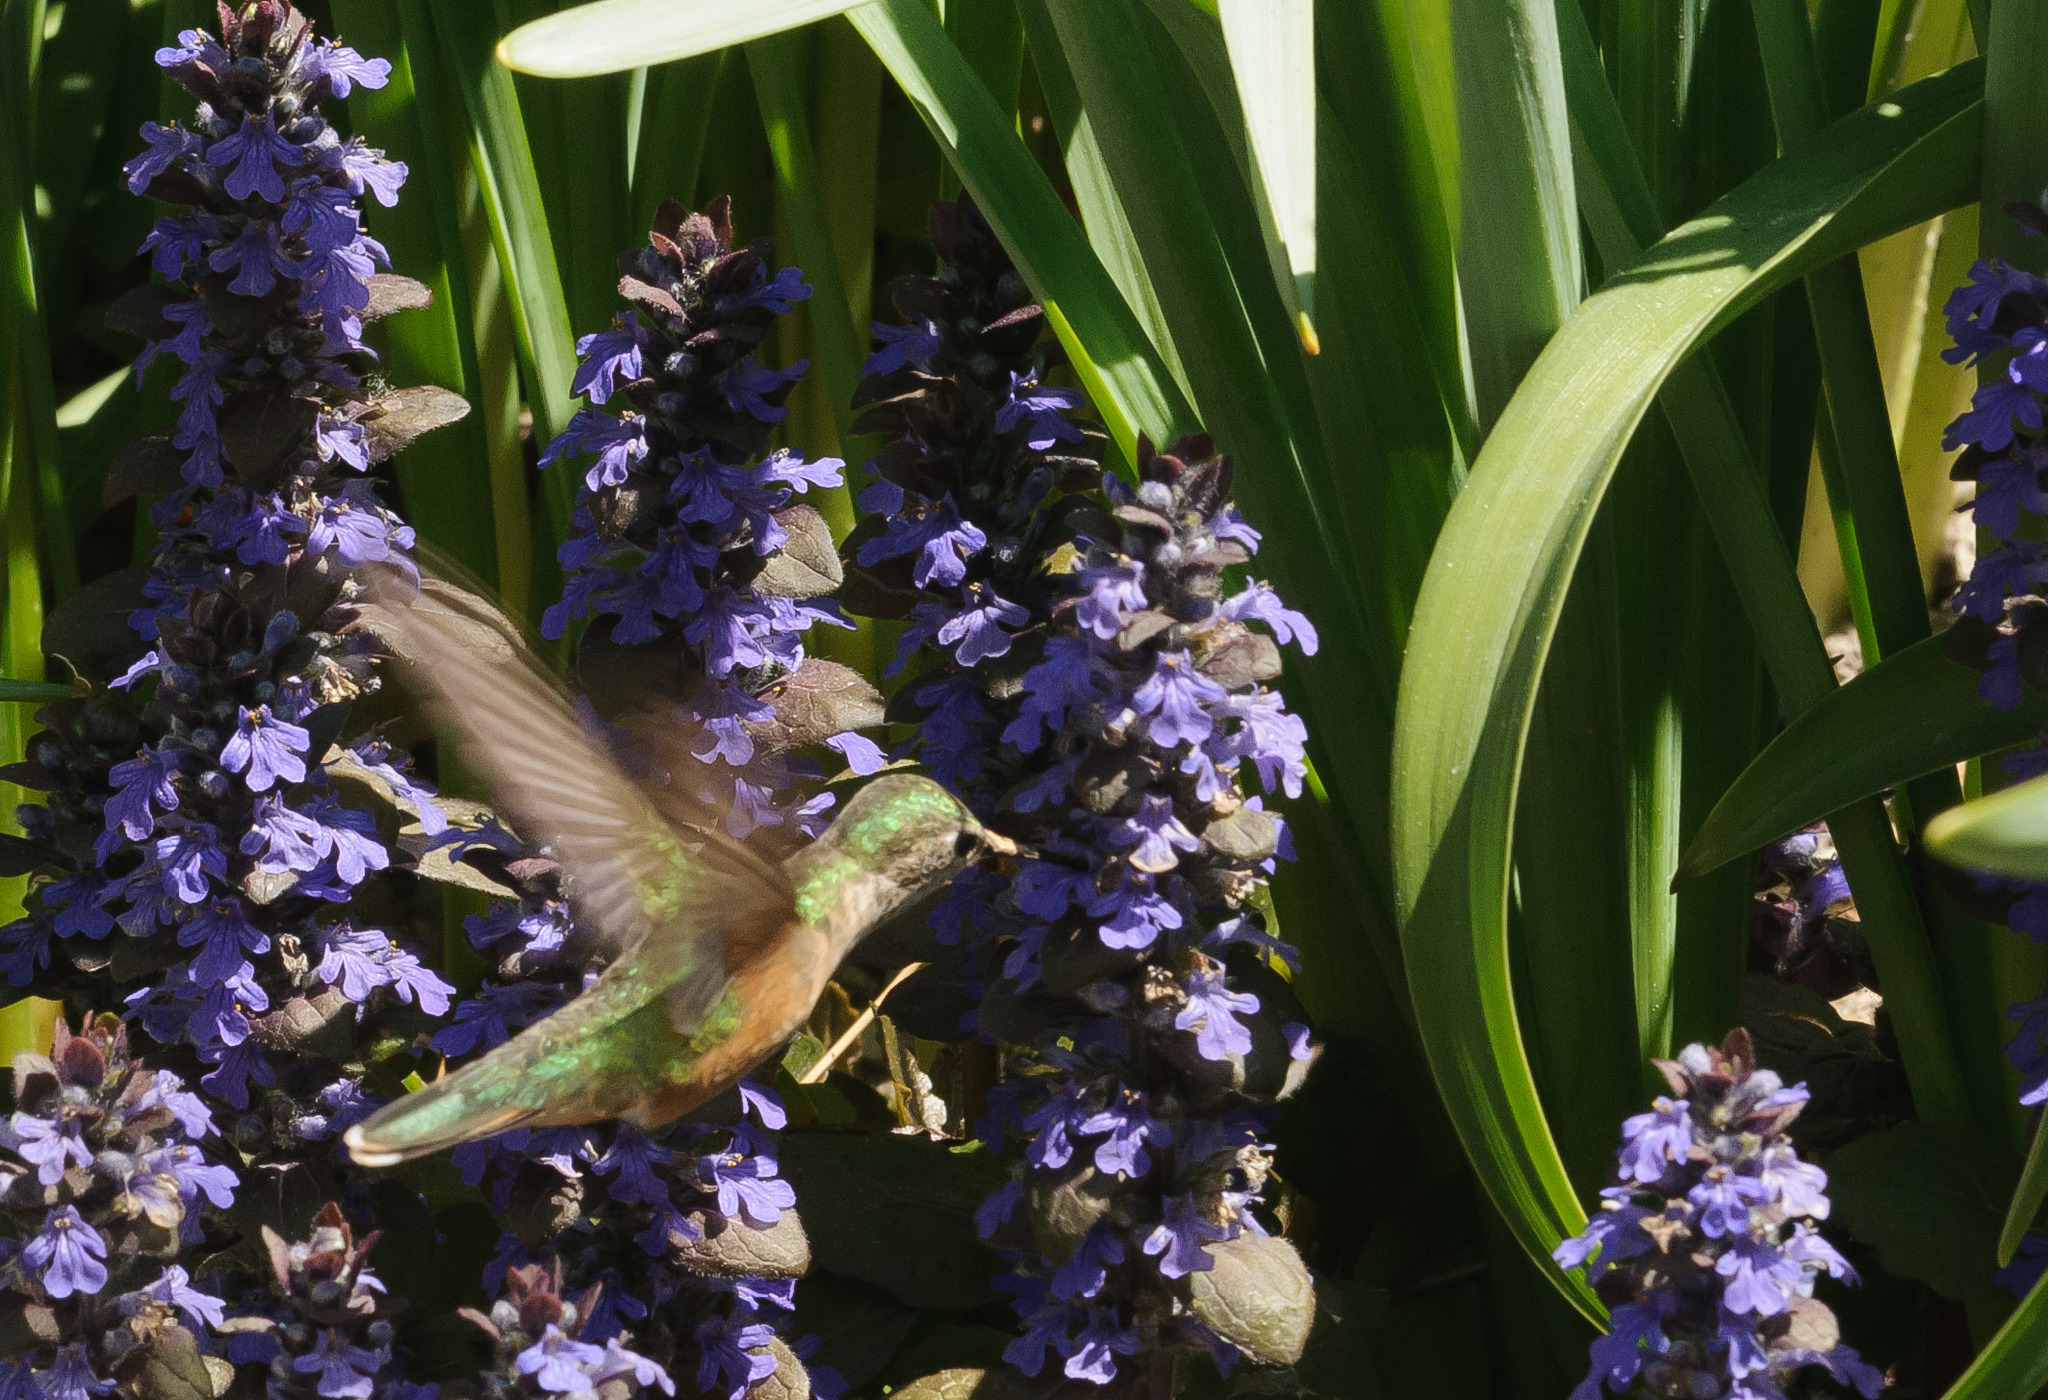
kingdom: Animalia
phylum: Chordata
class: Aves
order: Apodiformes
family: Trochilidae
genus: Selasphorus
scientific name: Selasphorus platycercus
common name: Broad-tailed hummingbird
